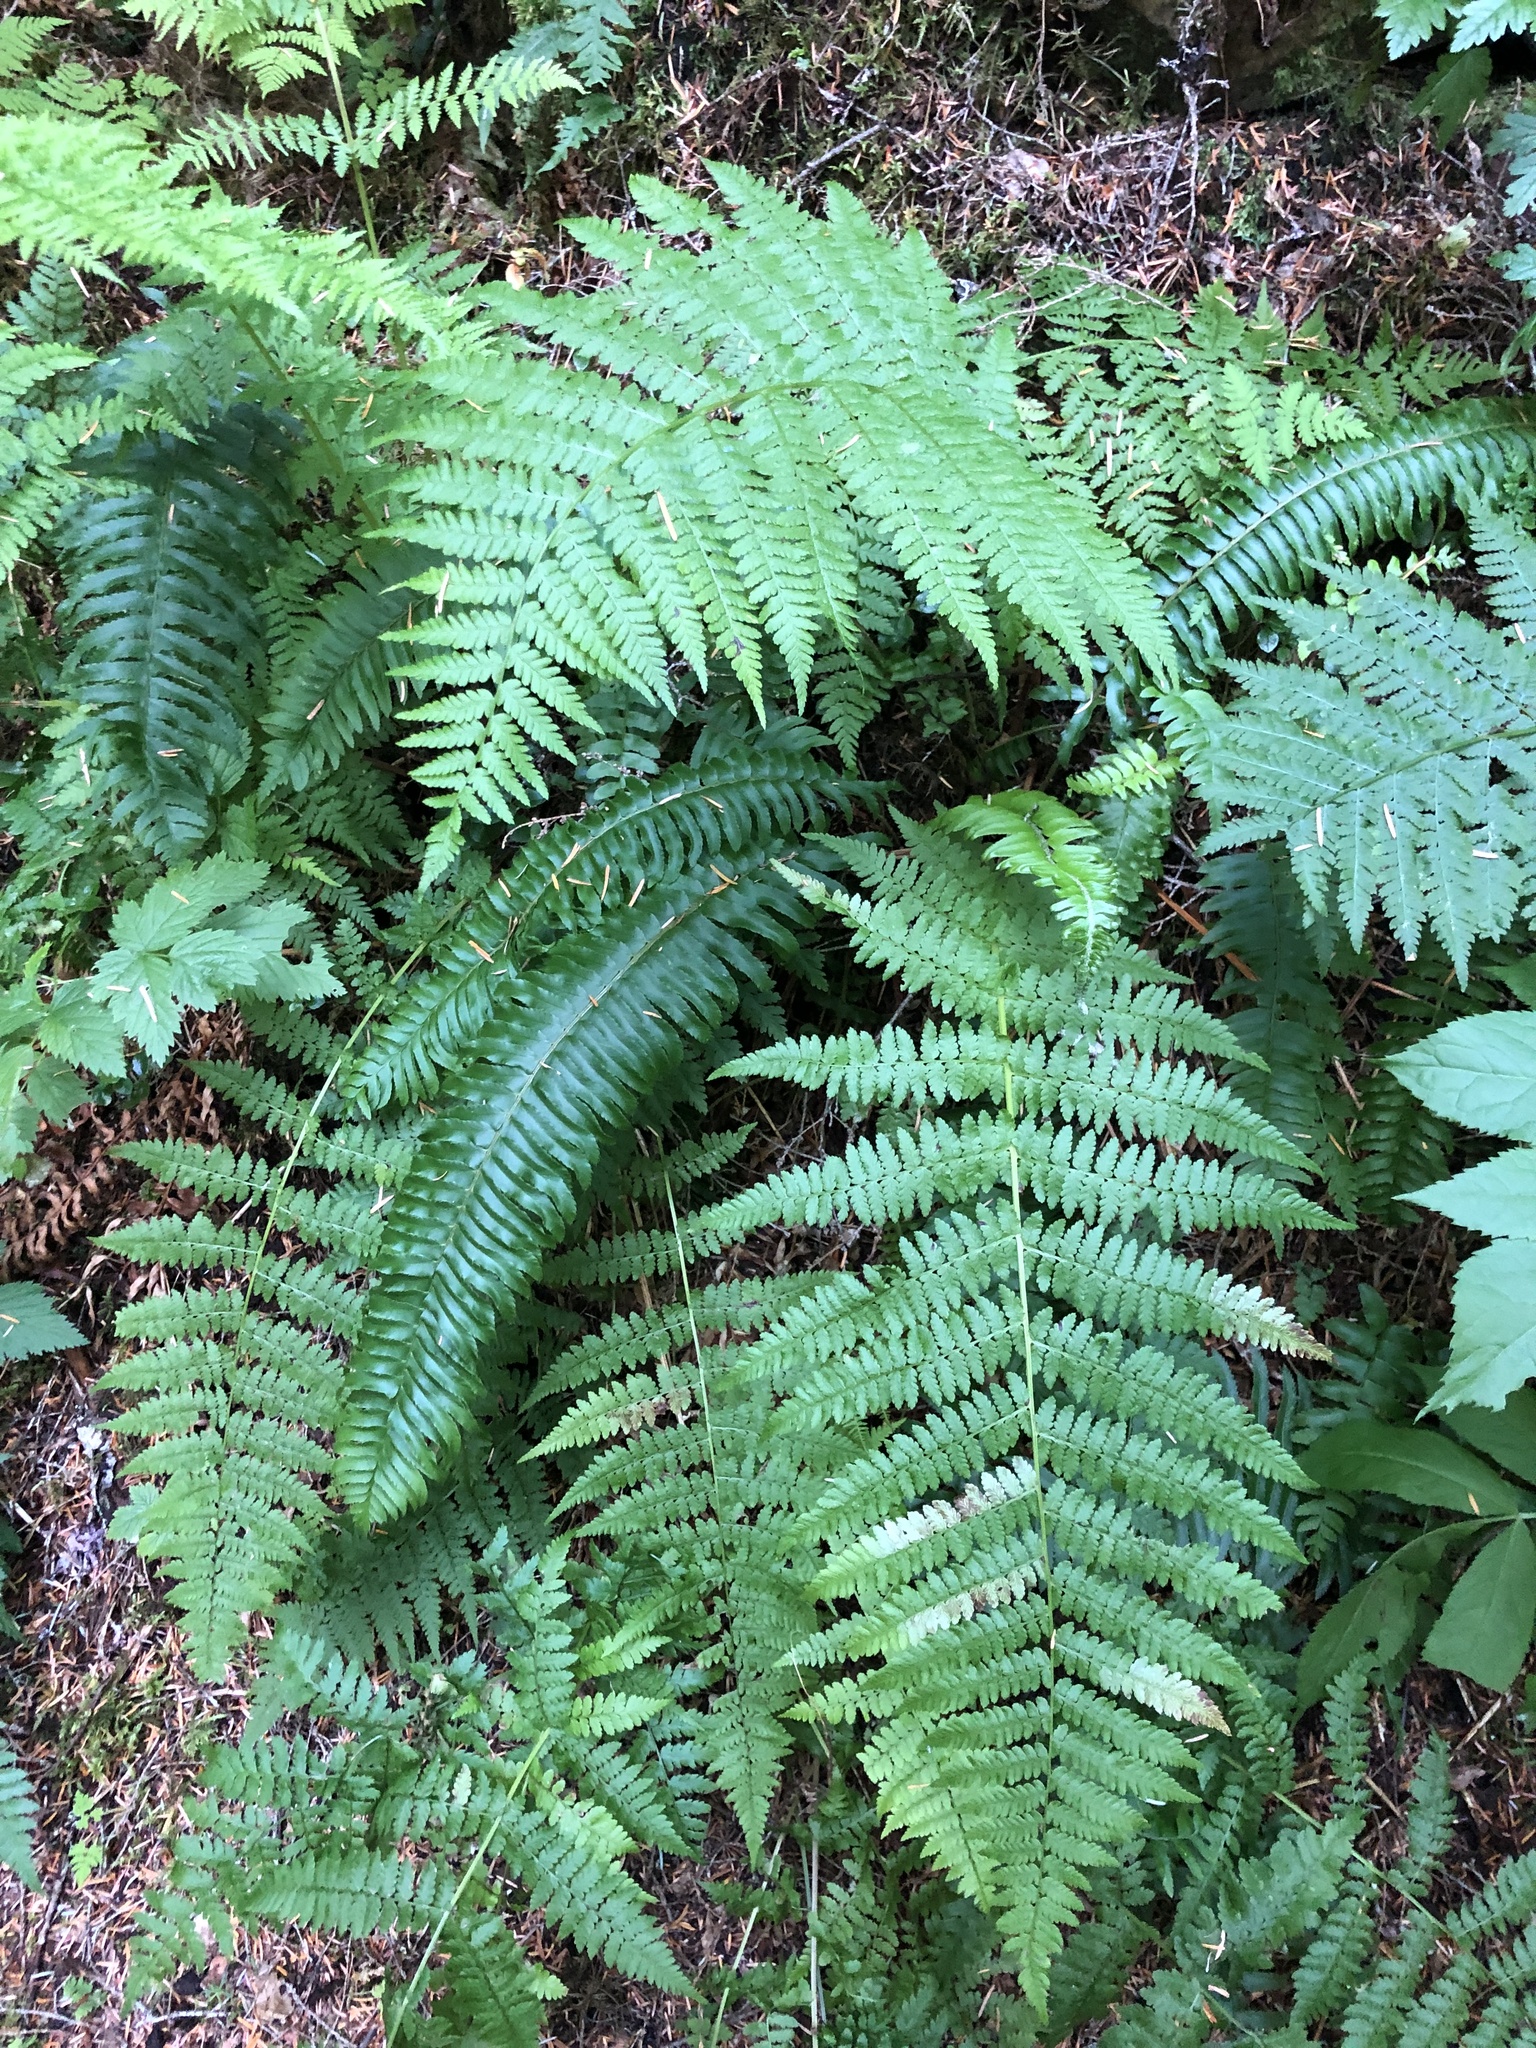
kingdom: Plantae
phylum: Tracheophyta
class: Polypodiopsida
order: Polypodiales
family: Athyriaceae
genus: Athyrium
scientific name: Athyrium filix-femina
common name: Lady fern
